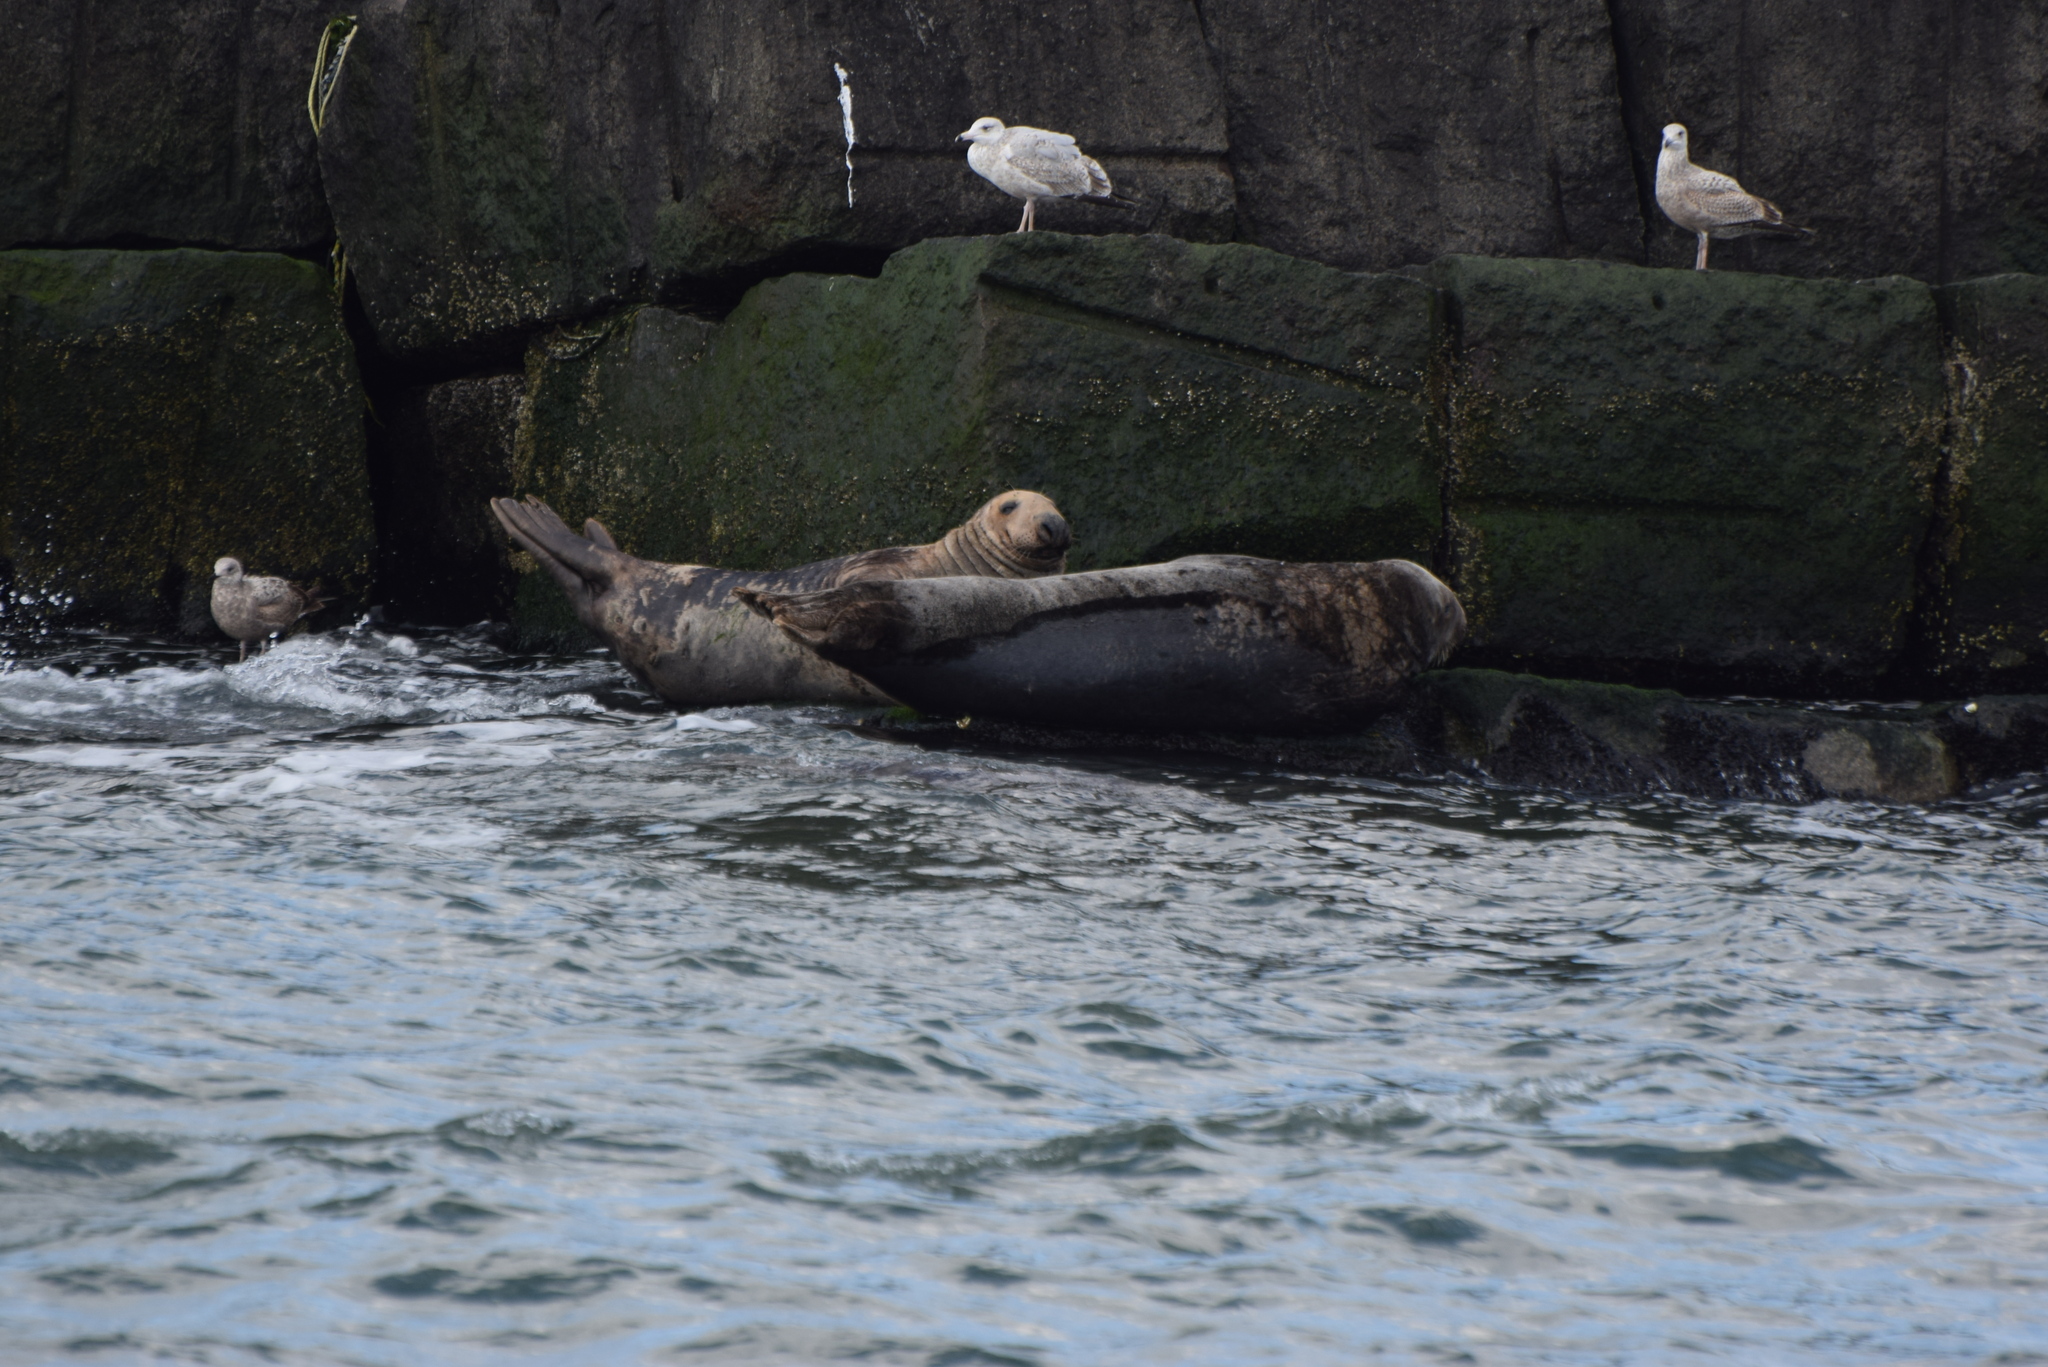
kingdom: Animalia
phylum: Chordata
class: Mammalia
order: Carnivora
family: Phocidae
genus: Halichoerus
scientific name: Halichoerus grypus
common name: Grey seal
